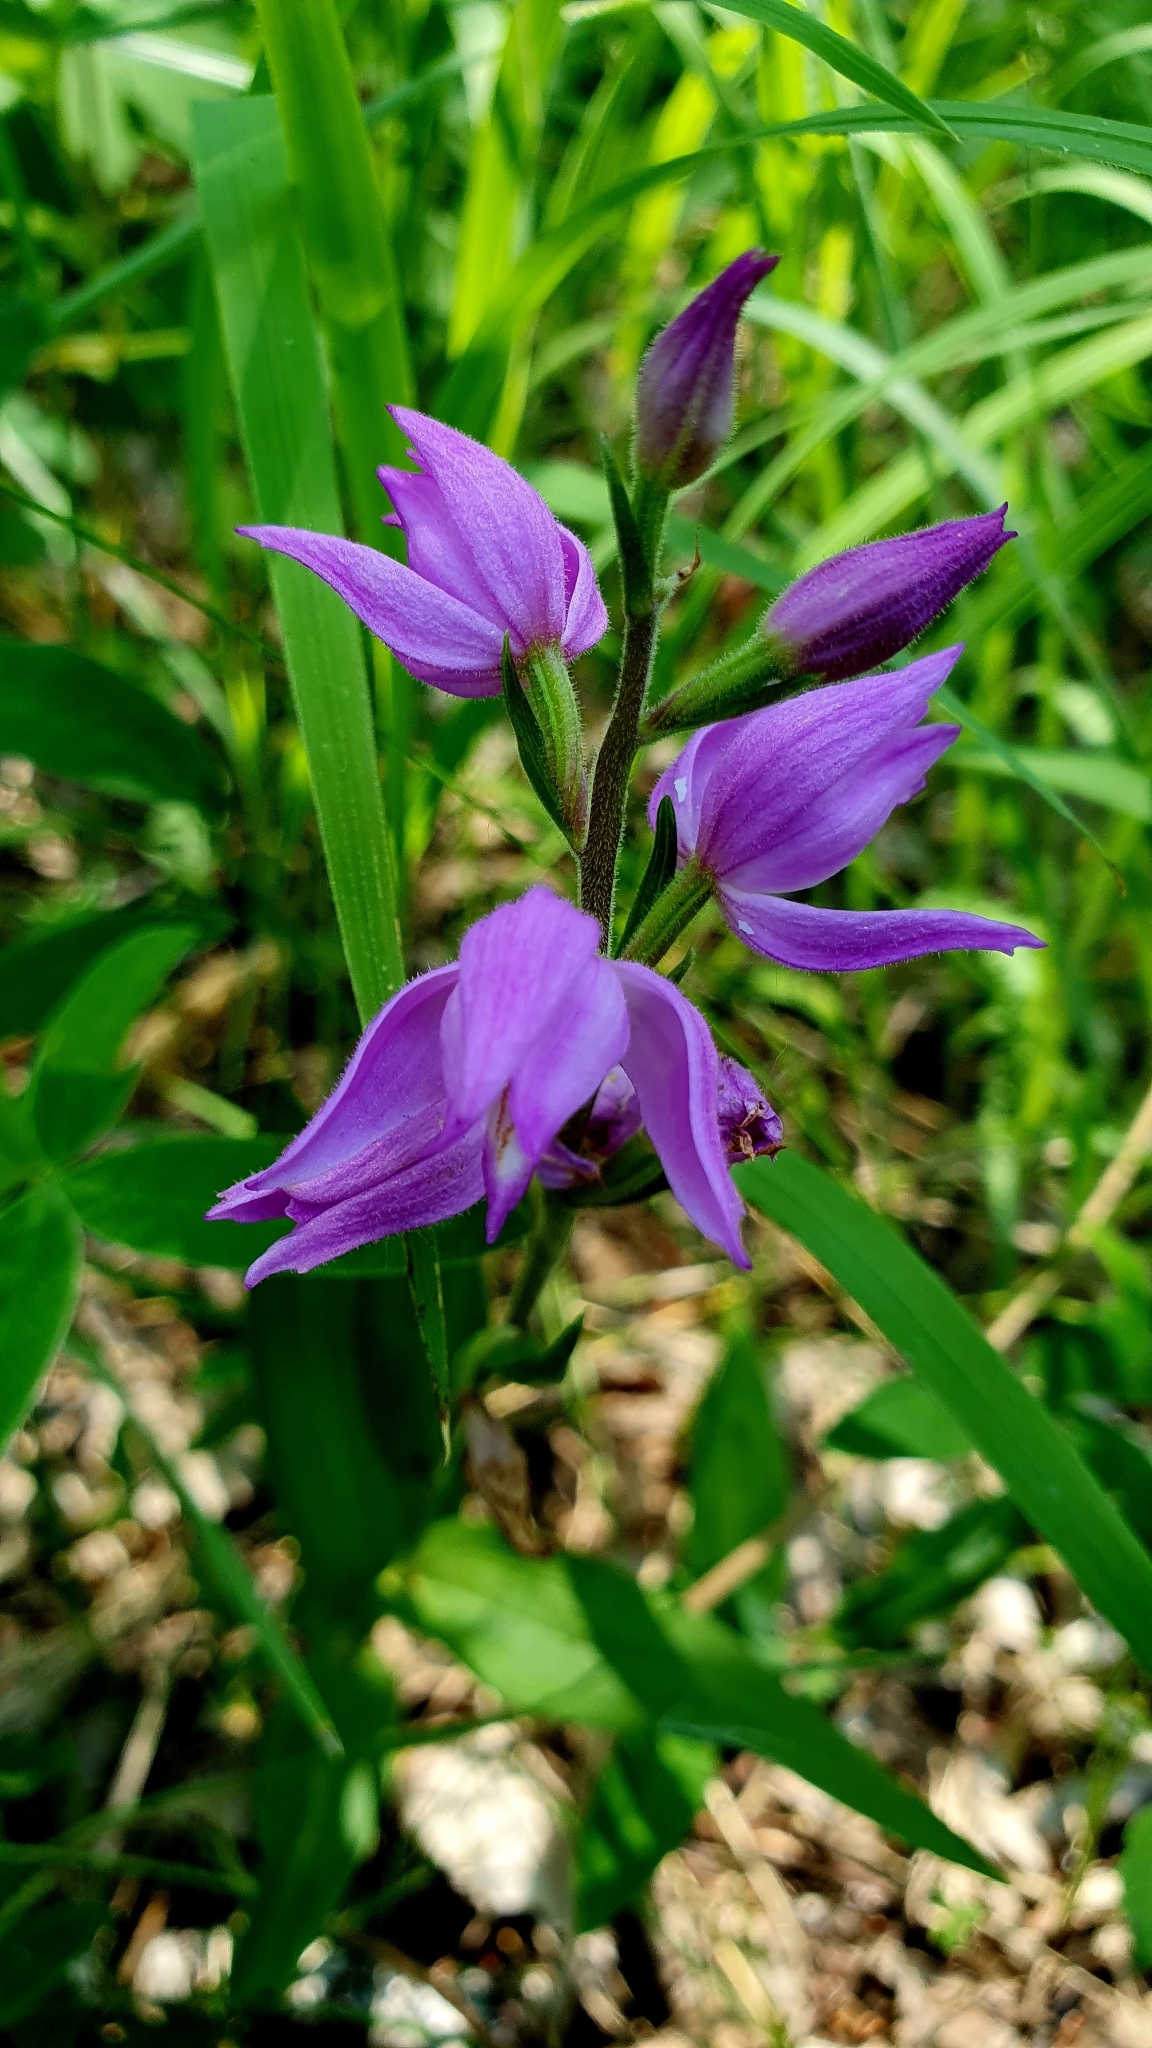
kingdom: Plantae
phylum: Tracheophyta
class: Liliopsida
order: Asparagales
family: Orchidaceae
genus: Cephalanthera
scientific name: Cephalanthera rubra
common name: Red helleborine
